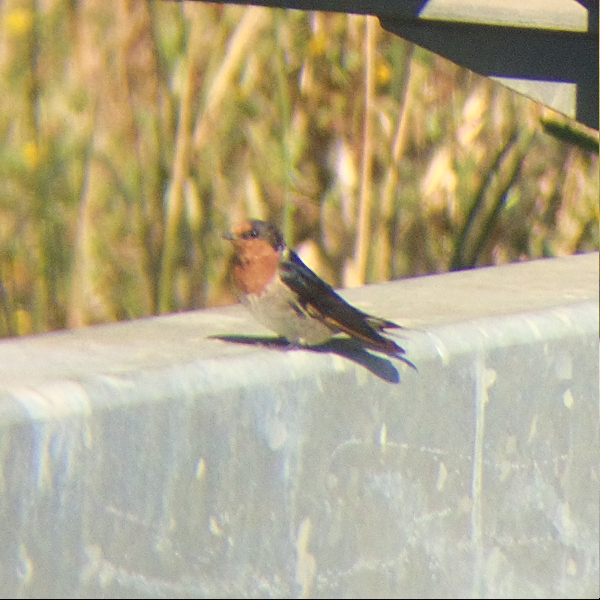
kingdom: Animalia
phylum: Chordata
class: Aves
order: Passeriformes
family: Hirundinidae
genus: Hirundo
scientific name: Hirundo neoxena
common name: Welcome swallow
